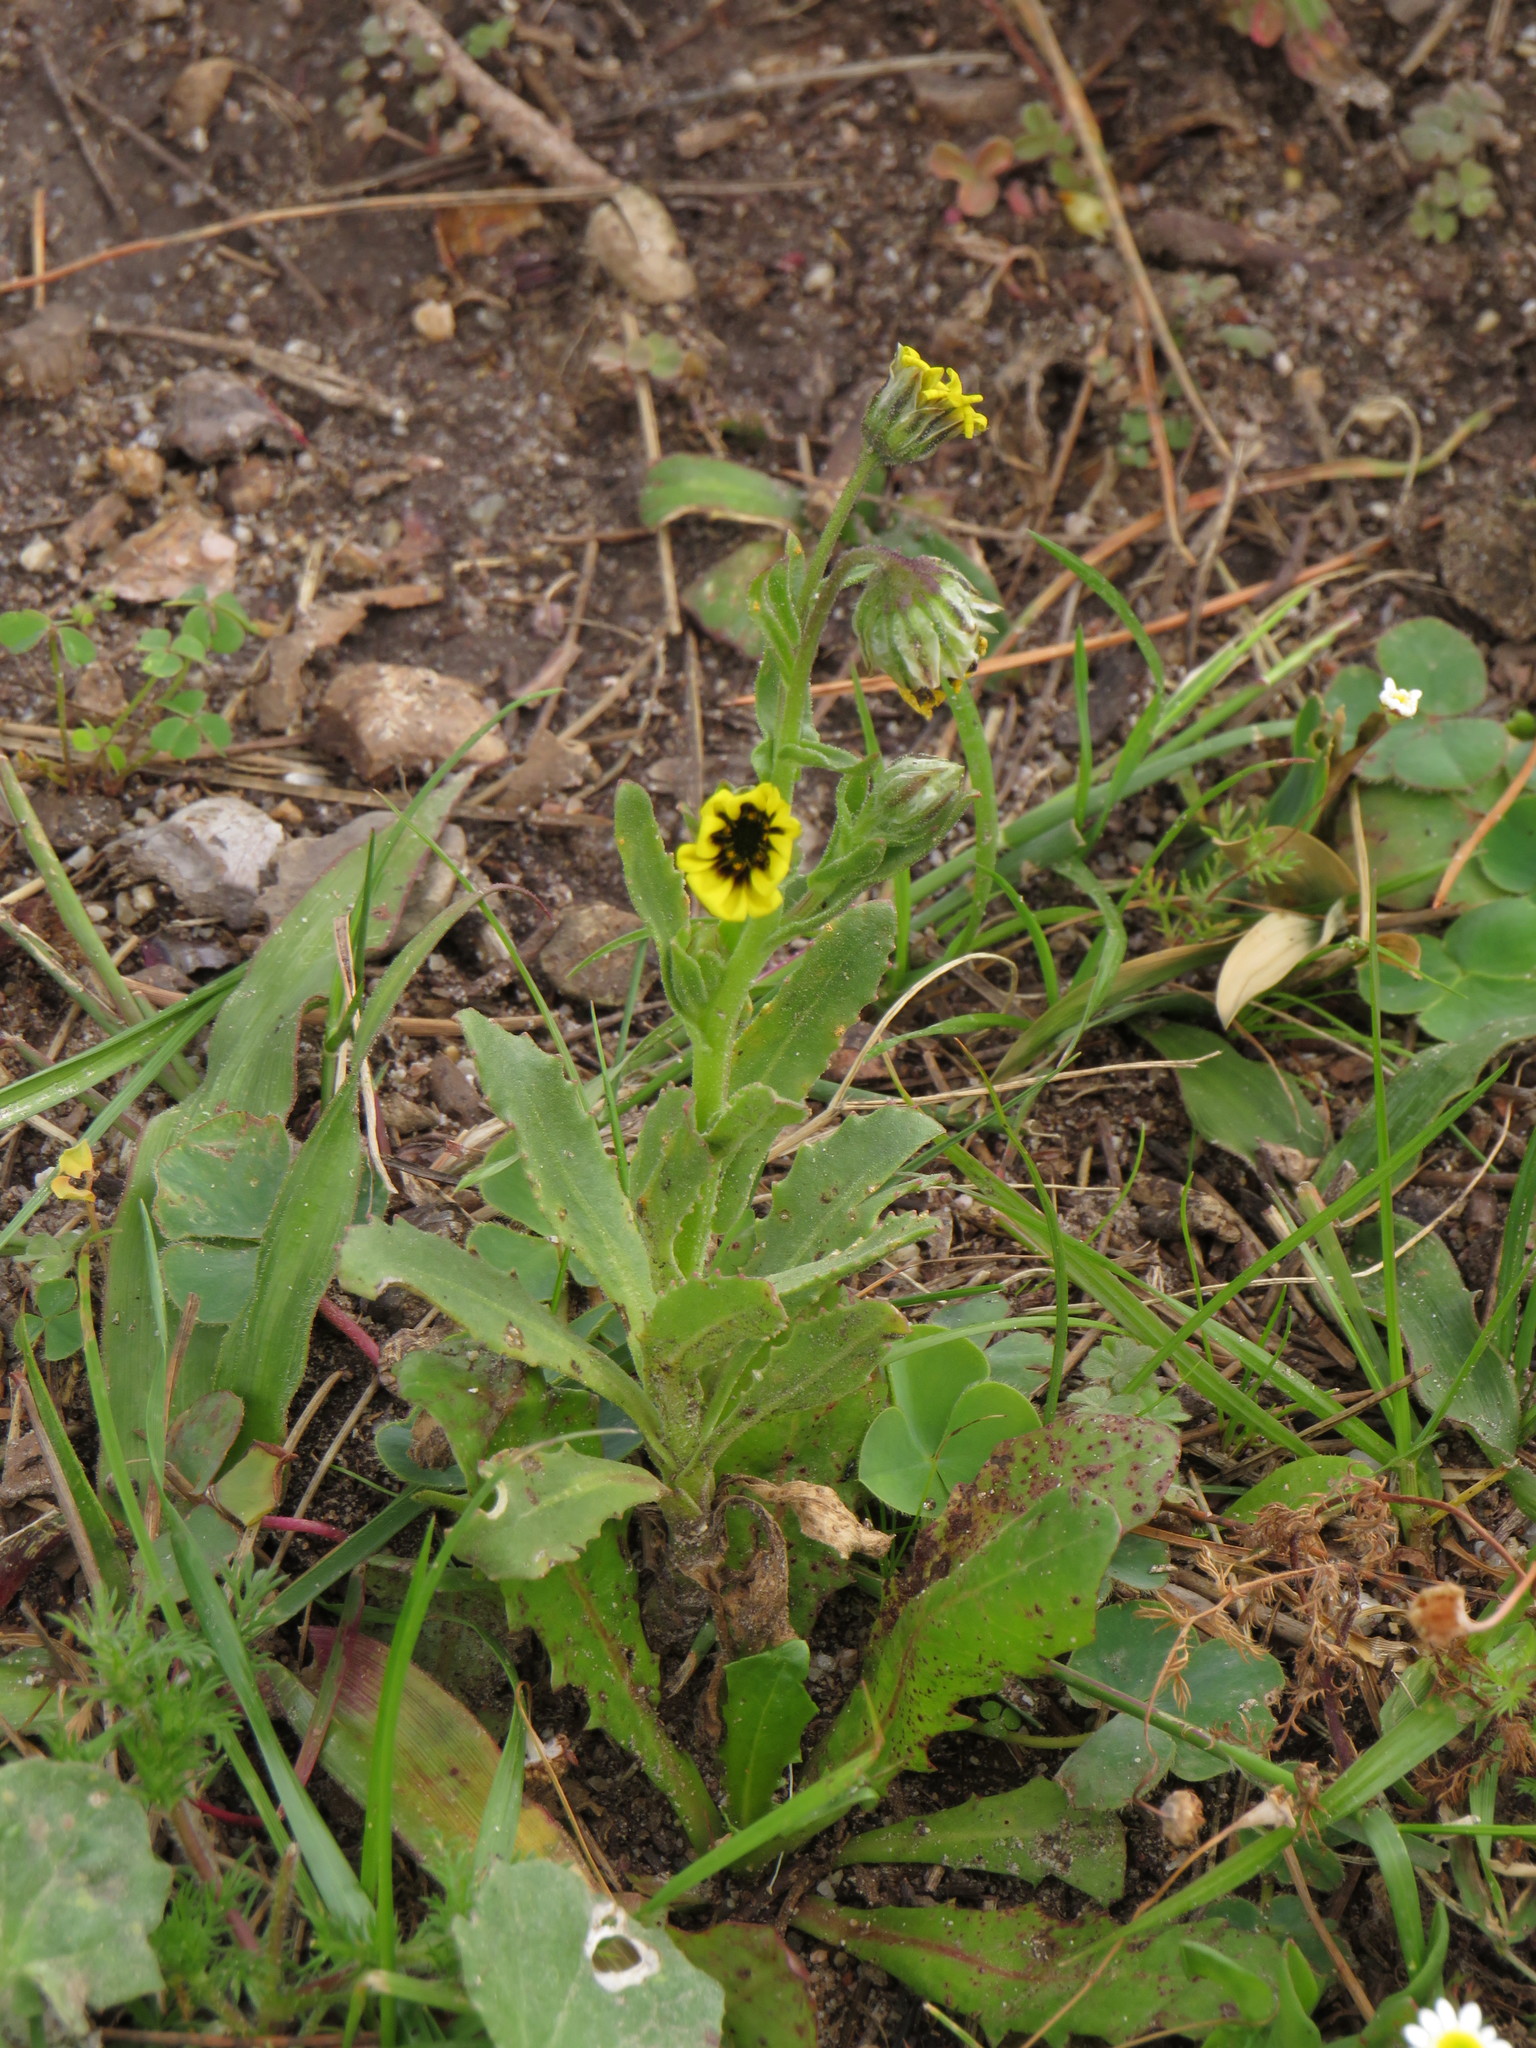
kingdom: Plantae
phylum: Tracheophyta
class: Magnoliopsida
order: Asterales
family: Asteraceae
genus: Osteospermum
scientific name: Osteospermum monstrosum
